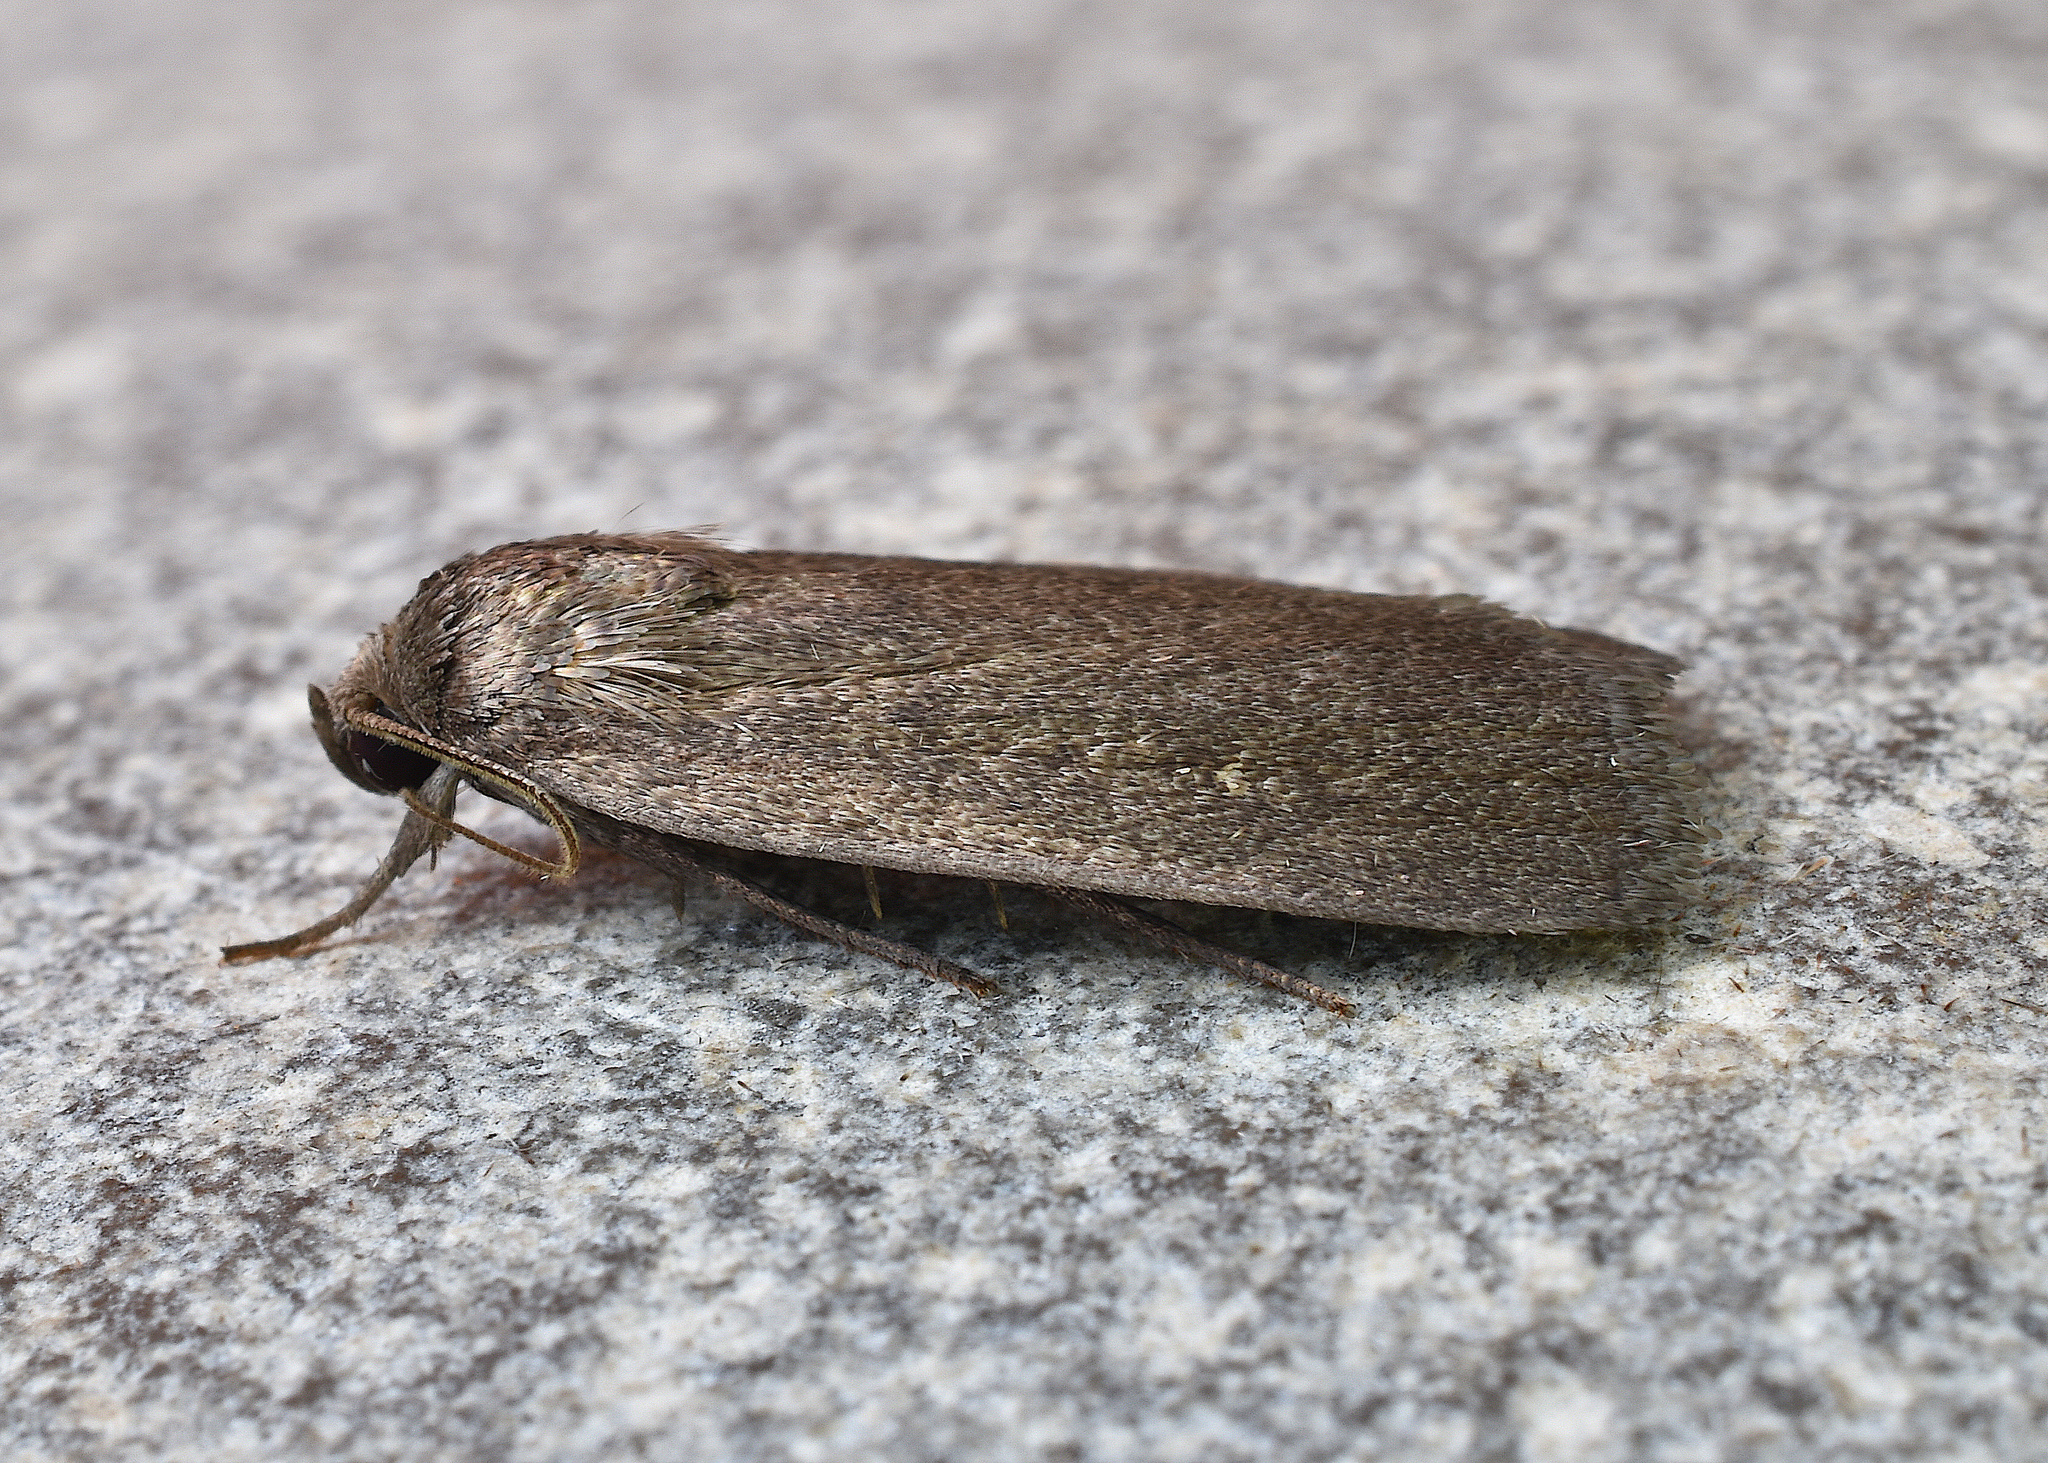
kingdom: Animalia
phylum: Arthropoda
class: Insecta
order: Lepidoptera
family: Noctuidae
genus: Proxenus
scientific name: Proxenus miranda
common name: Miranda moth
